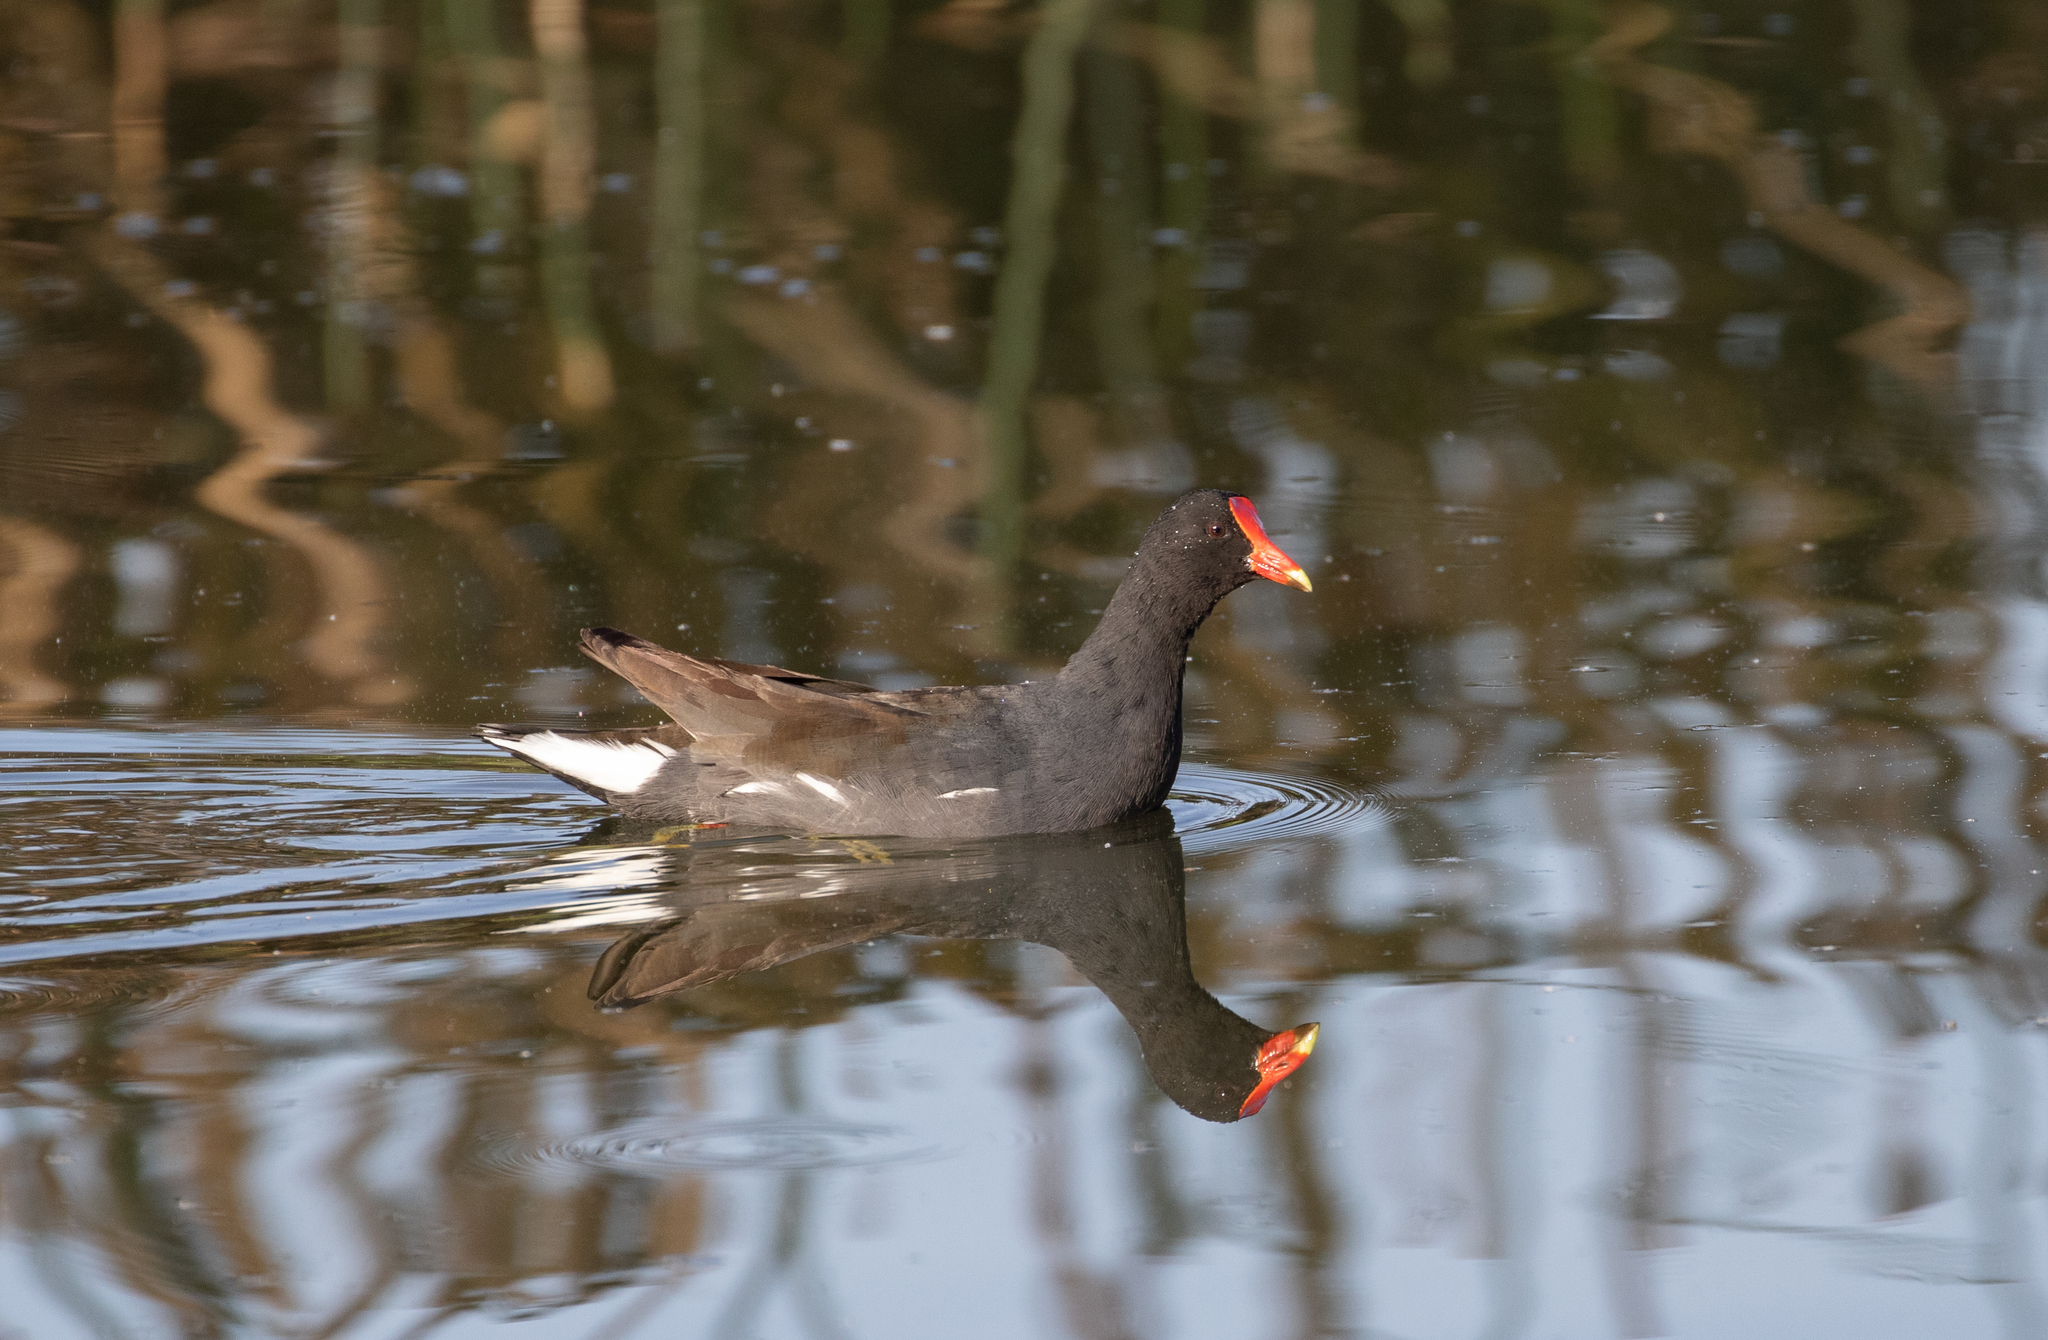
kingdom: Animalia
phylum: Chordata
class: Aves
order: Gruiformes
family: Rallidae
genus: Gallinula
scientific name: Gallinula chloropus
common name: Common moorhen
